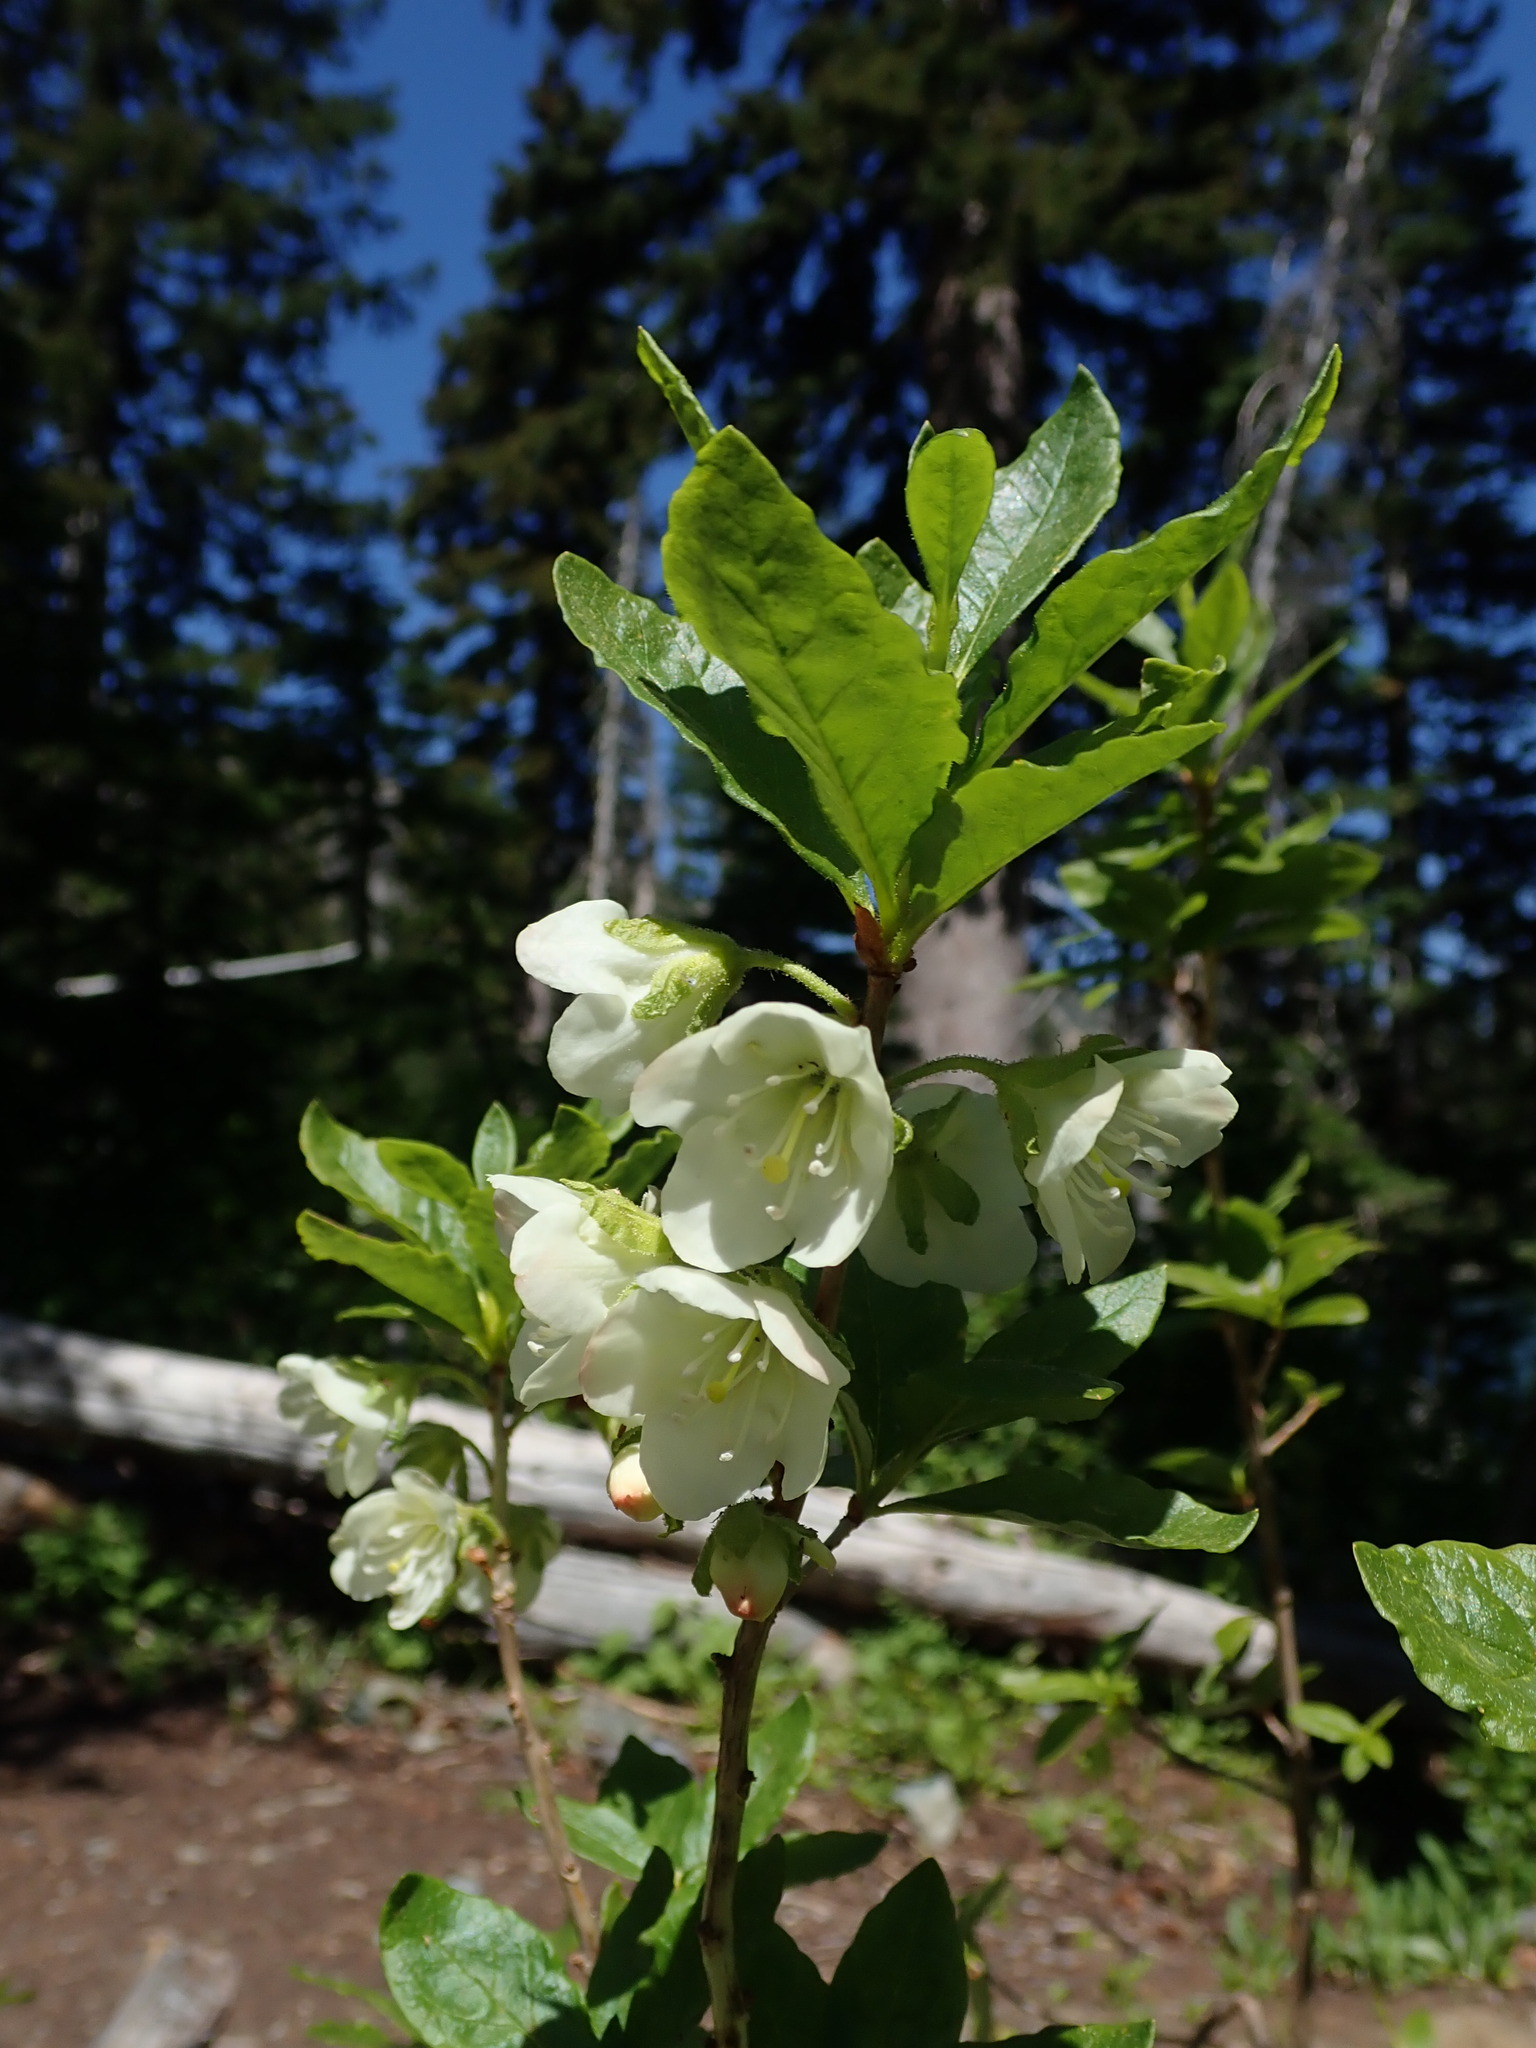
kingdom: Plantae
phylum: Tracheophyta
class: Magnoliopsida
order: Ericales
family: Ericaceae
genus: Rhododendron
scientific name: Rhododendron albiflorum
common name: White rhododendron
